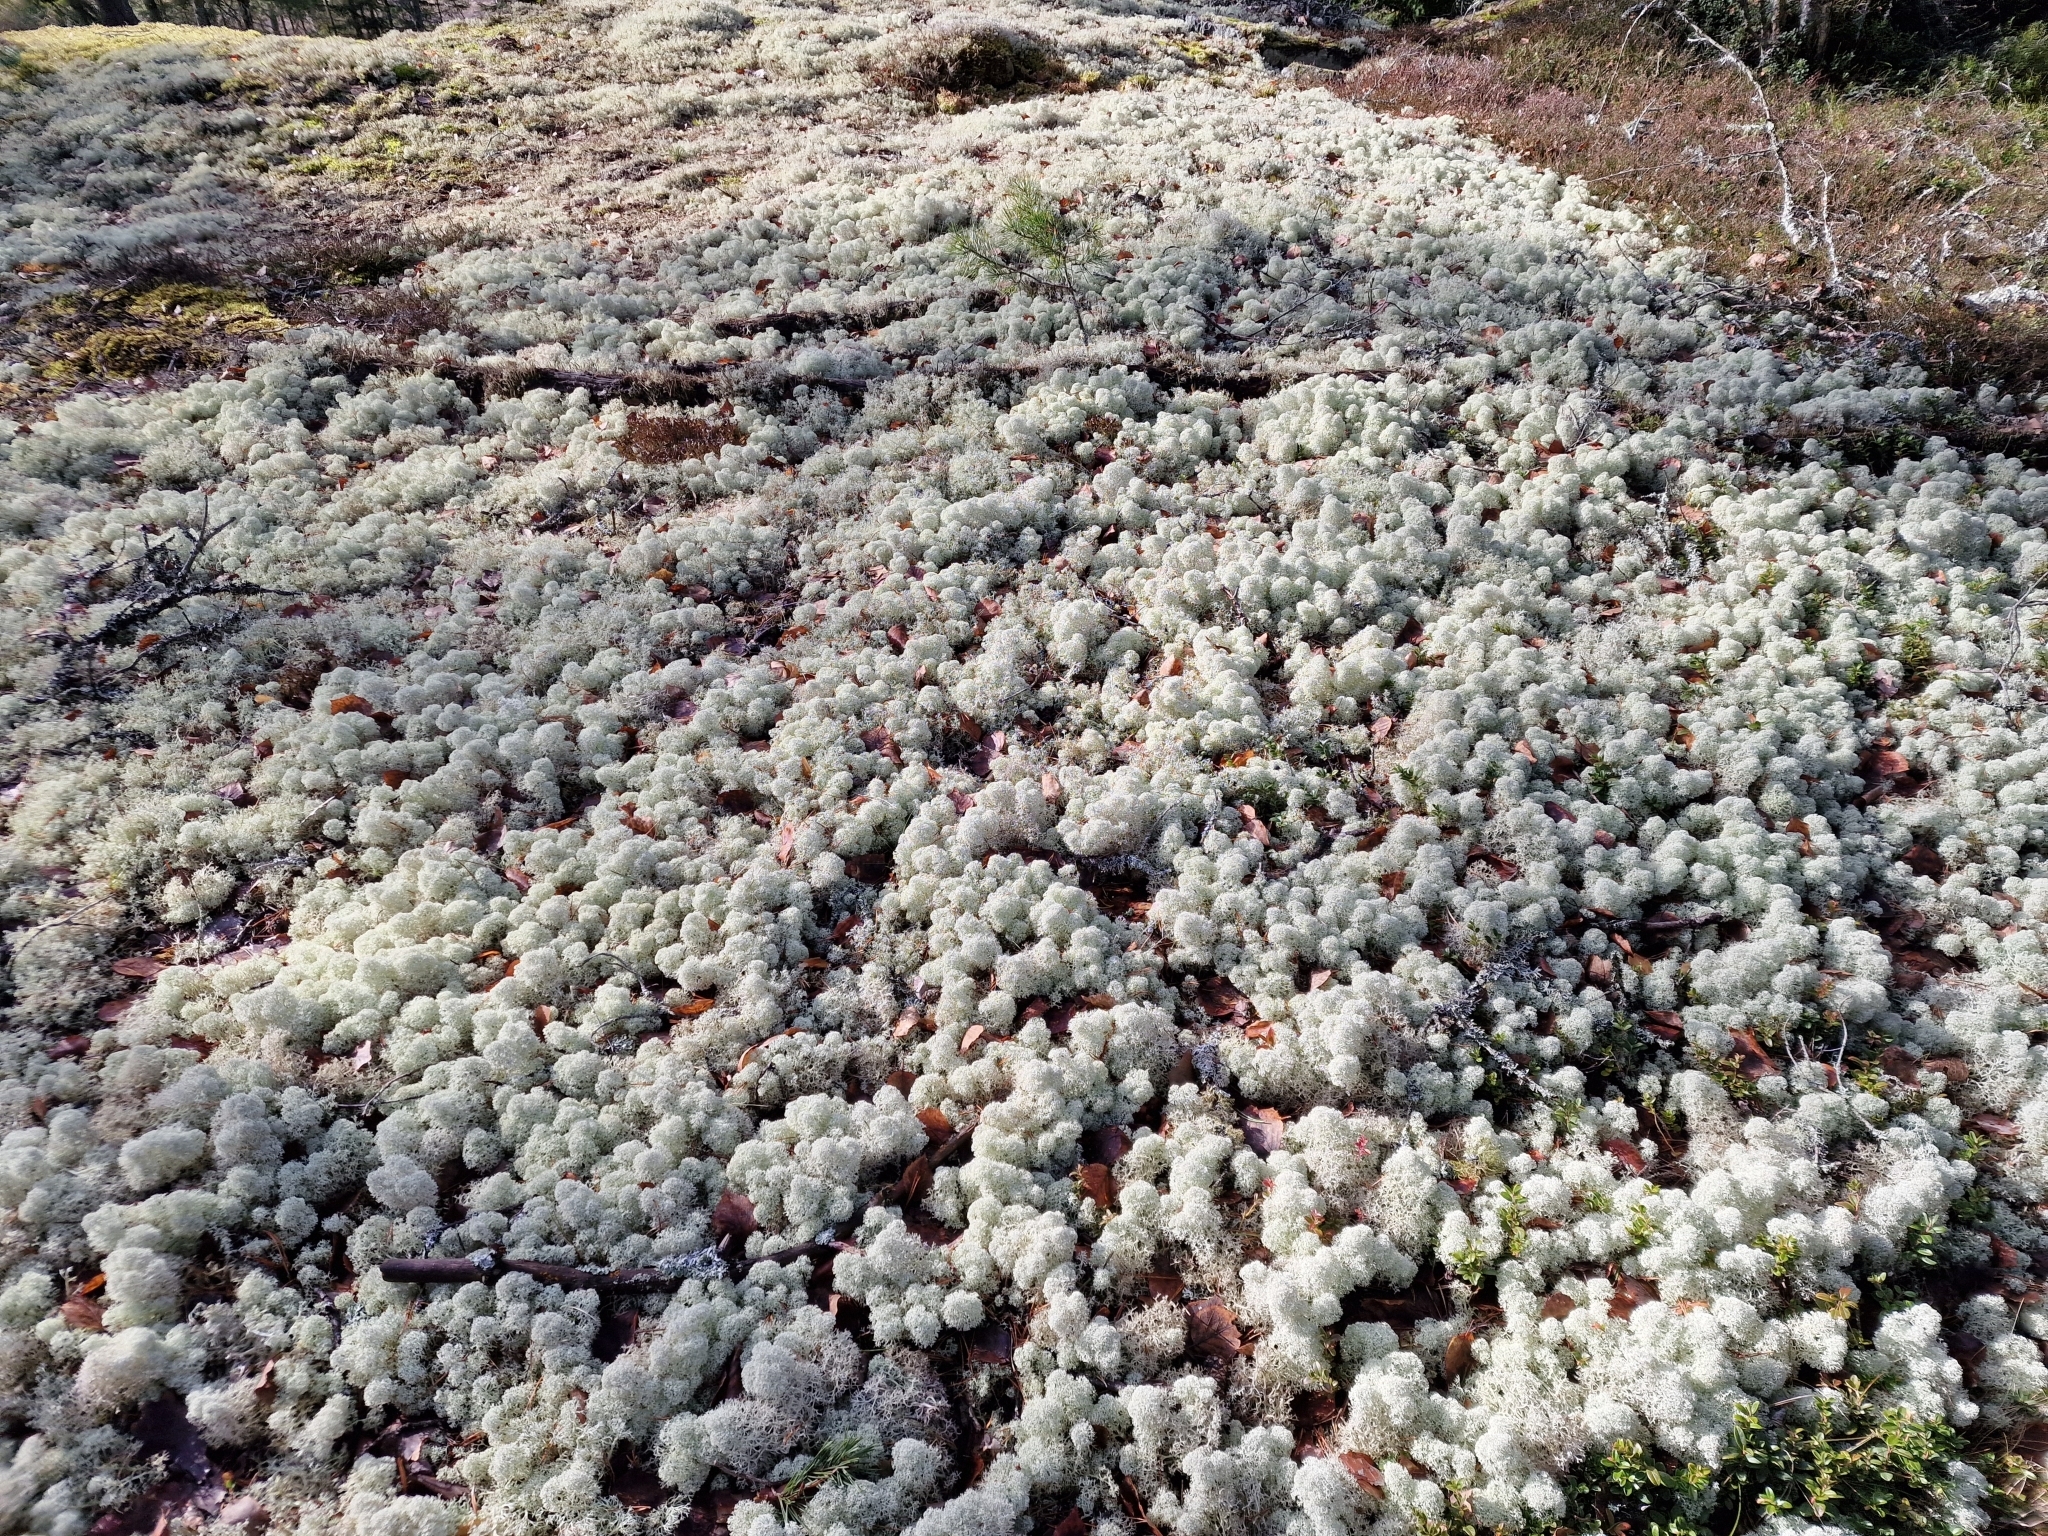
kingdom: Fungi
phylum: Ascomycota
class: Lecanoromycetes
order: Lecanorales
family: Cladoniaceae
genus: Cladonia
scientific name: Cladonia stellaris
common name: Star-tipped reindeer lichen
